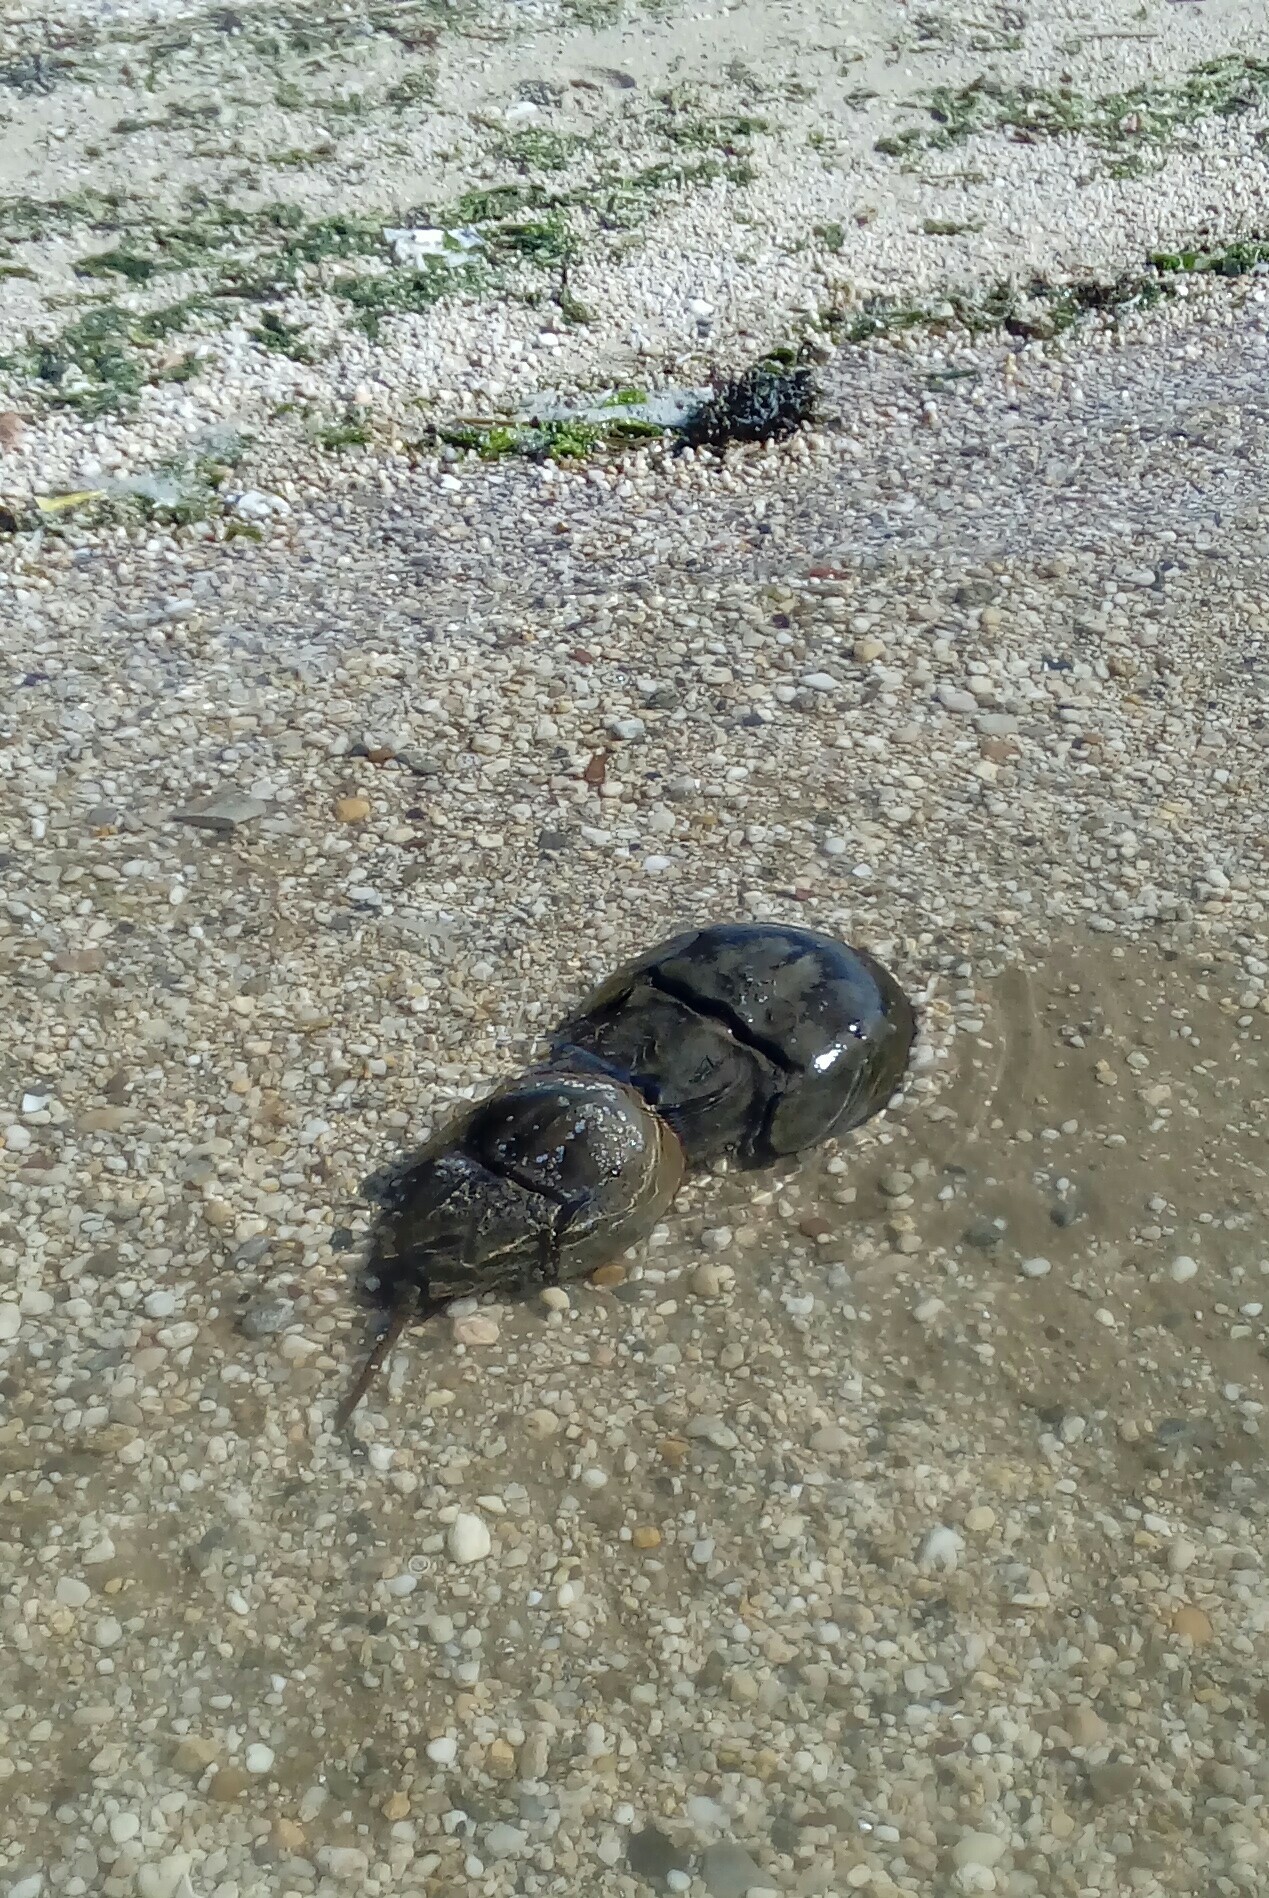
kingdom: Animalia
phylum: Arthropoda
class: Merostomata
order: Xiphosurida
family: Limulidae
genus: Limulus
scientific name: Limulus polyphemus
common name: Horseshoe crab
